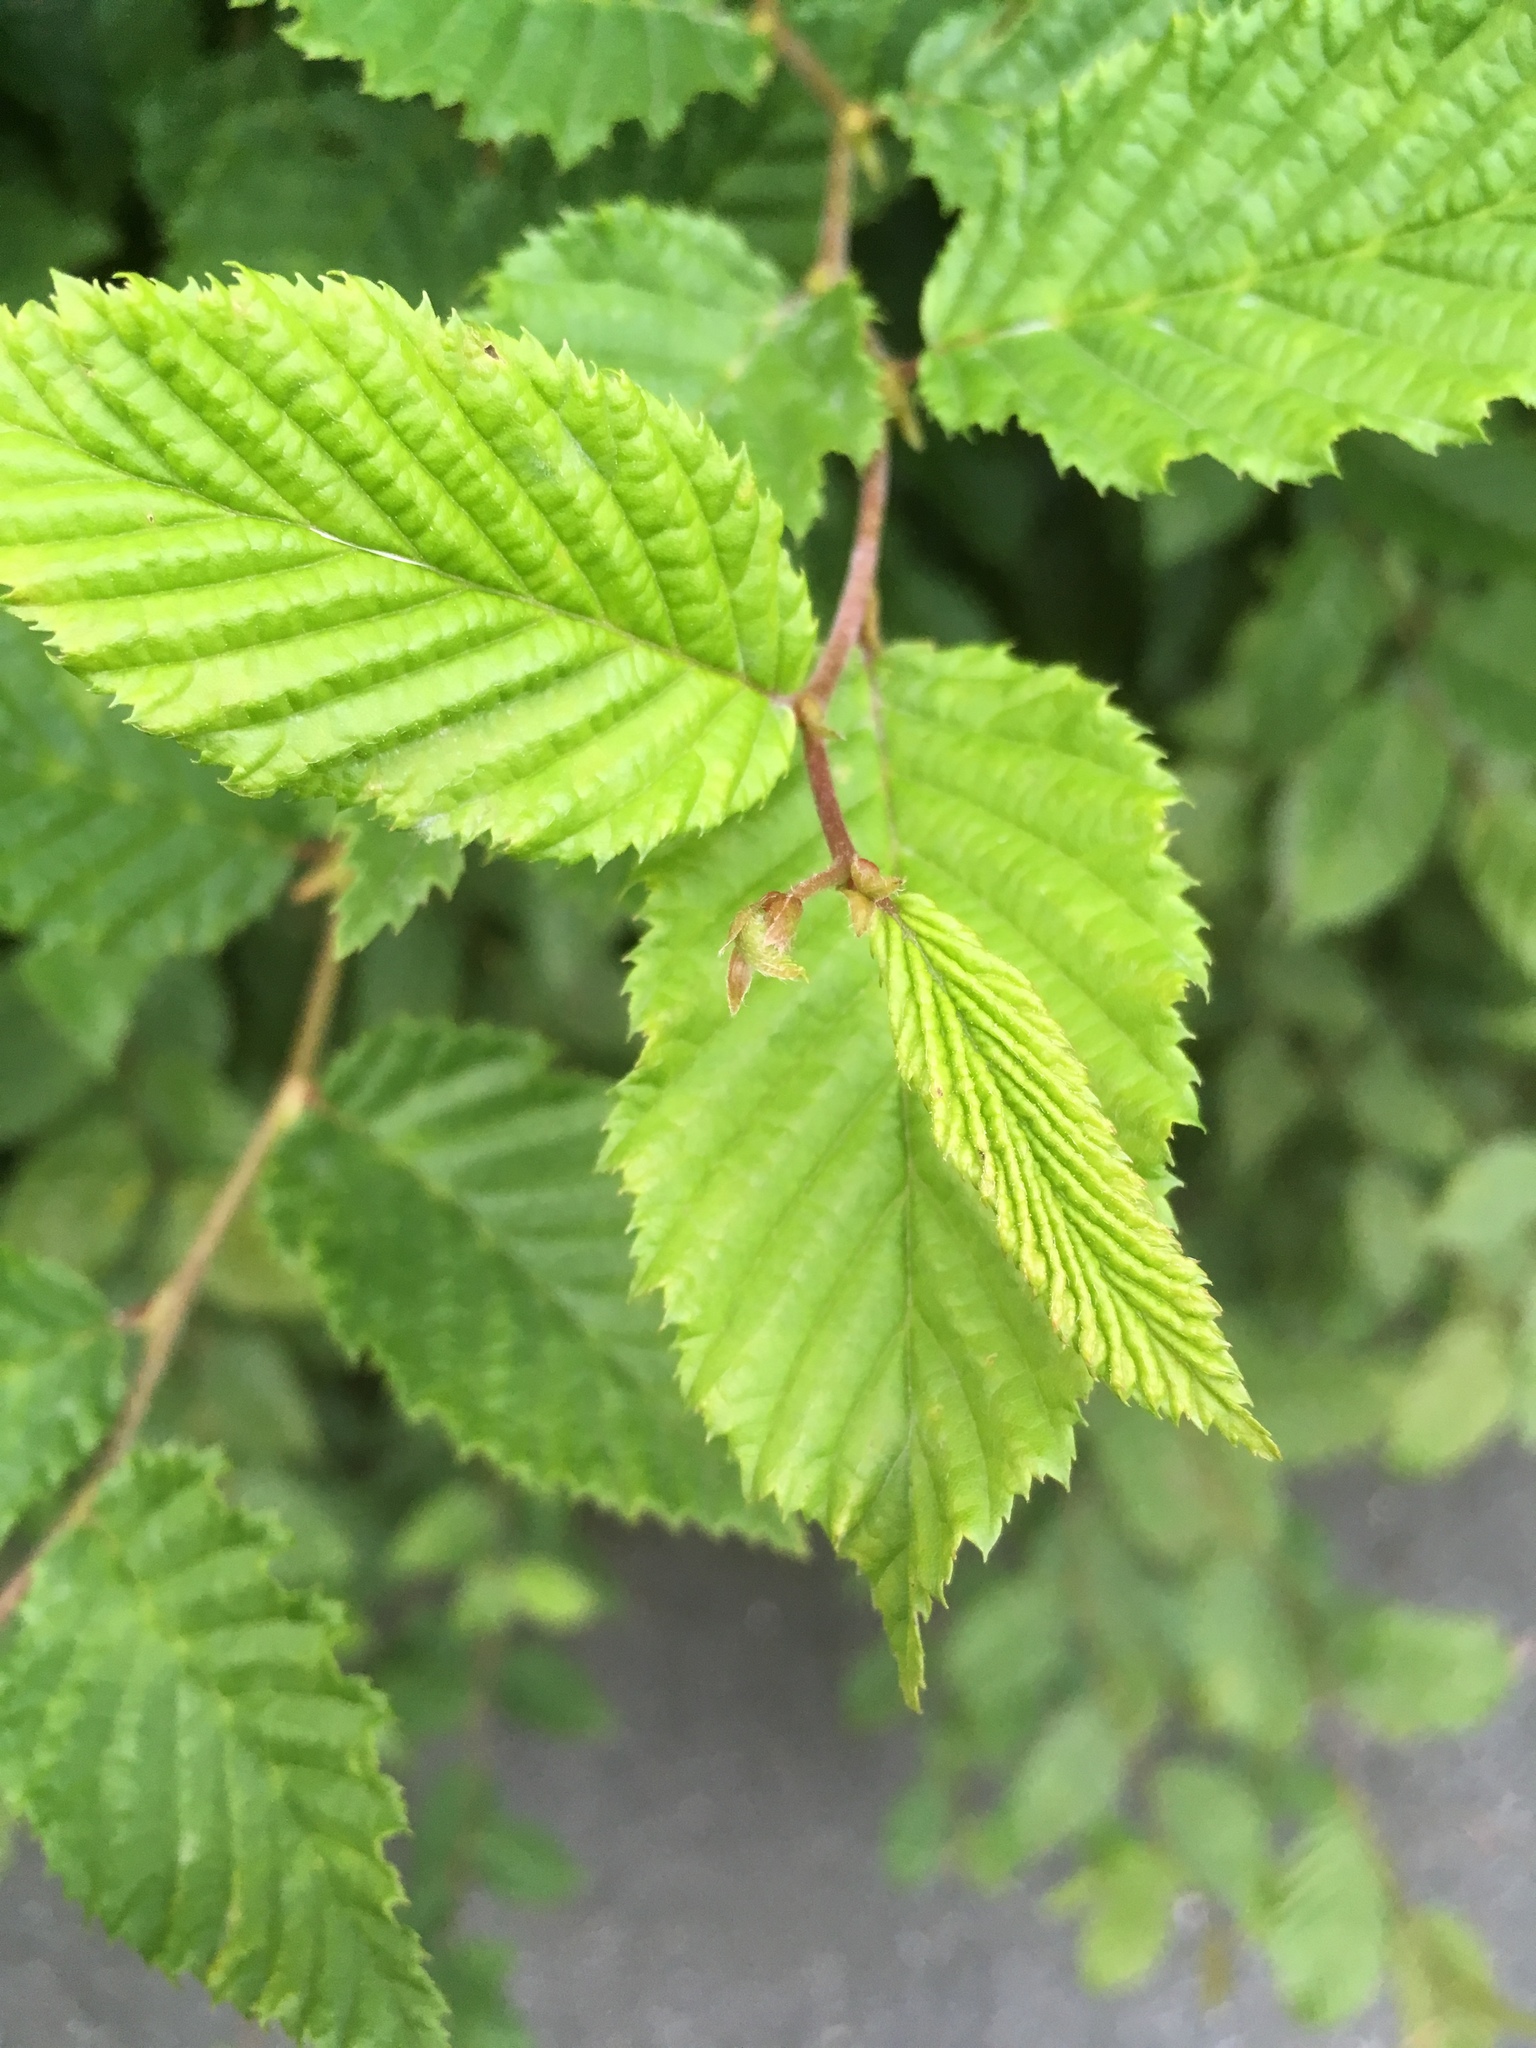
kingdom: Plantae
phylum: Tracheophyta
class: Magnoliopsida
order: Fagales
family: Betulaceae
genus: Carpinus
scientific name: Carpinus betulus
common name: Hornbeam
